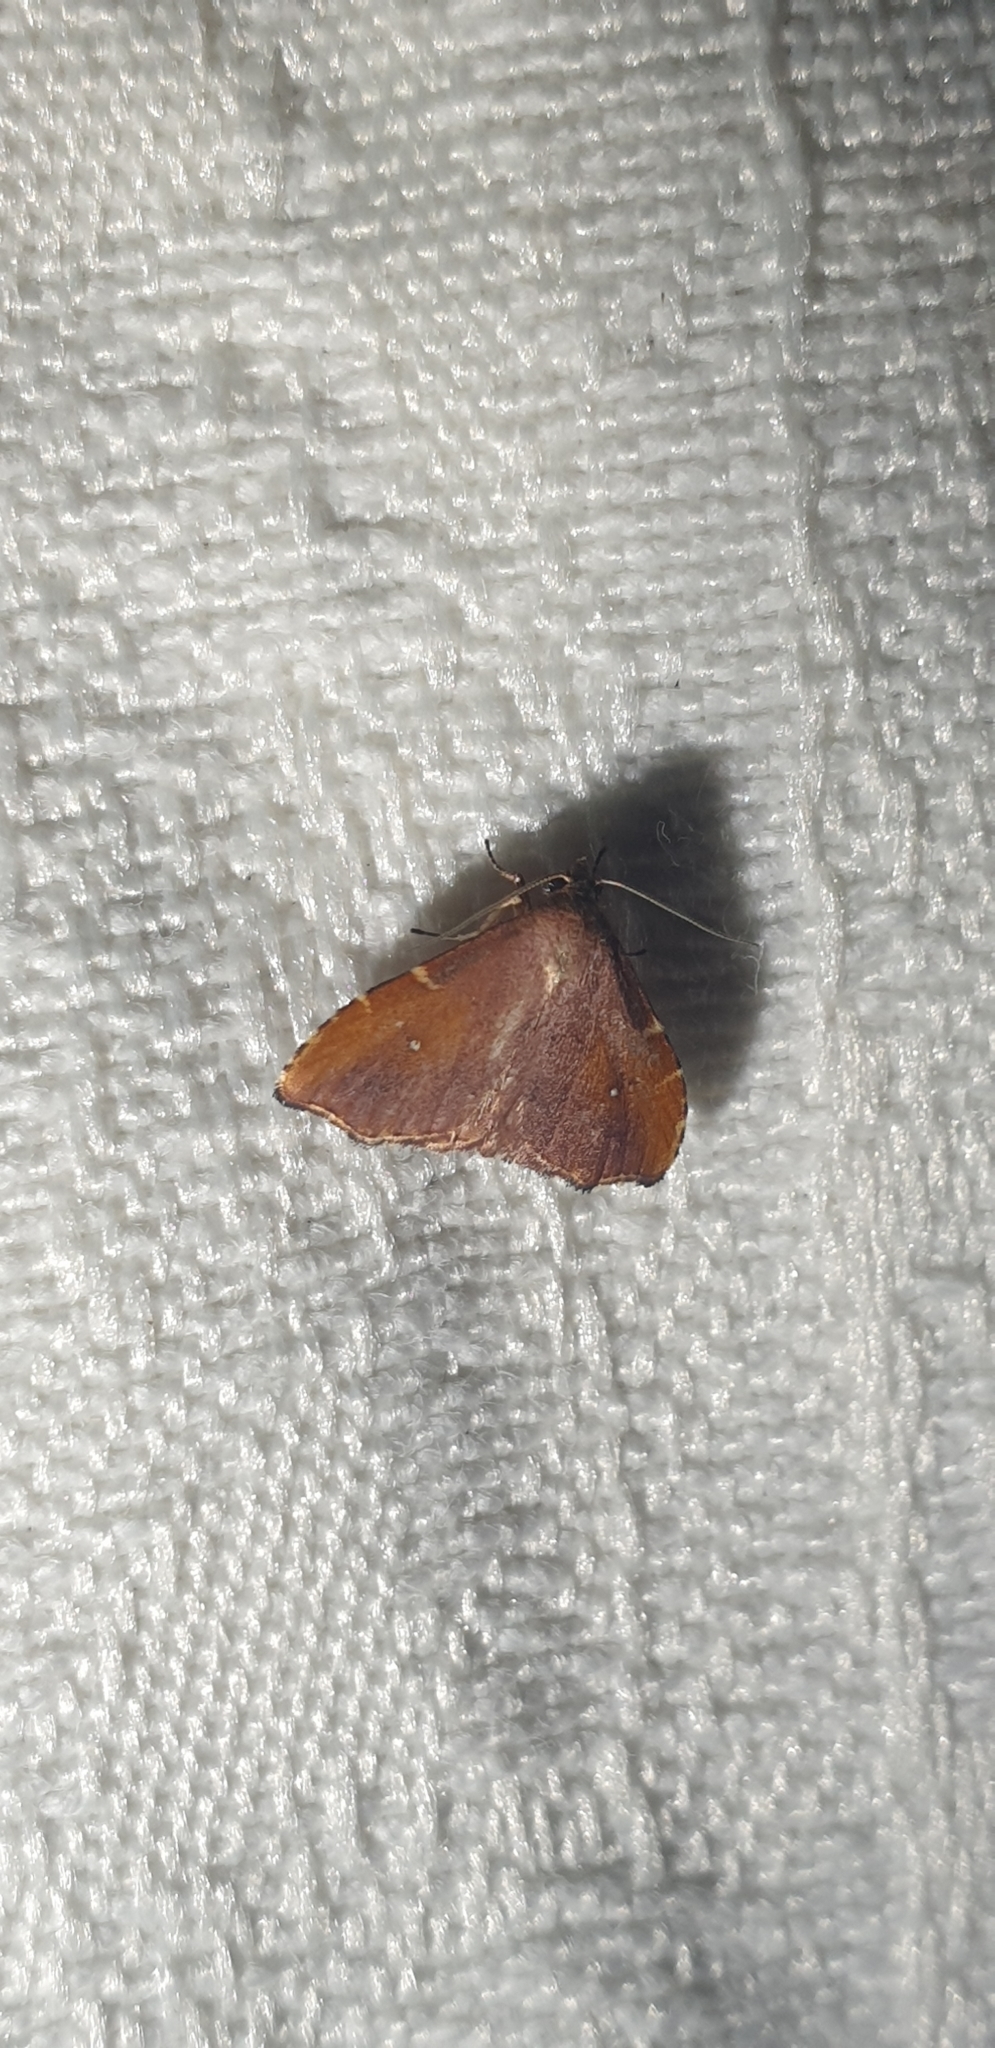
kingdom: Animalia
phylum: Arthropoda
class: Insecta
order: Lepidoptera
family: Noctuidae
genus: Heterorta
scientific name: Heterorta plutonis
